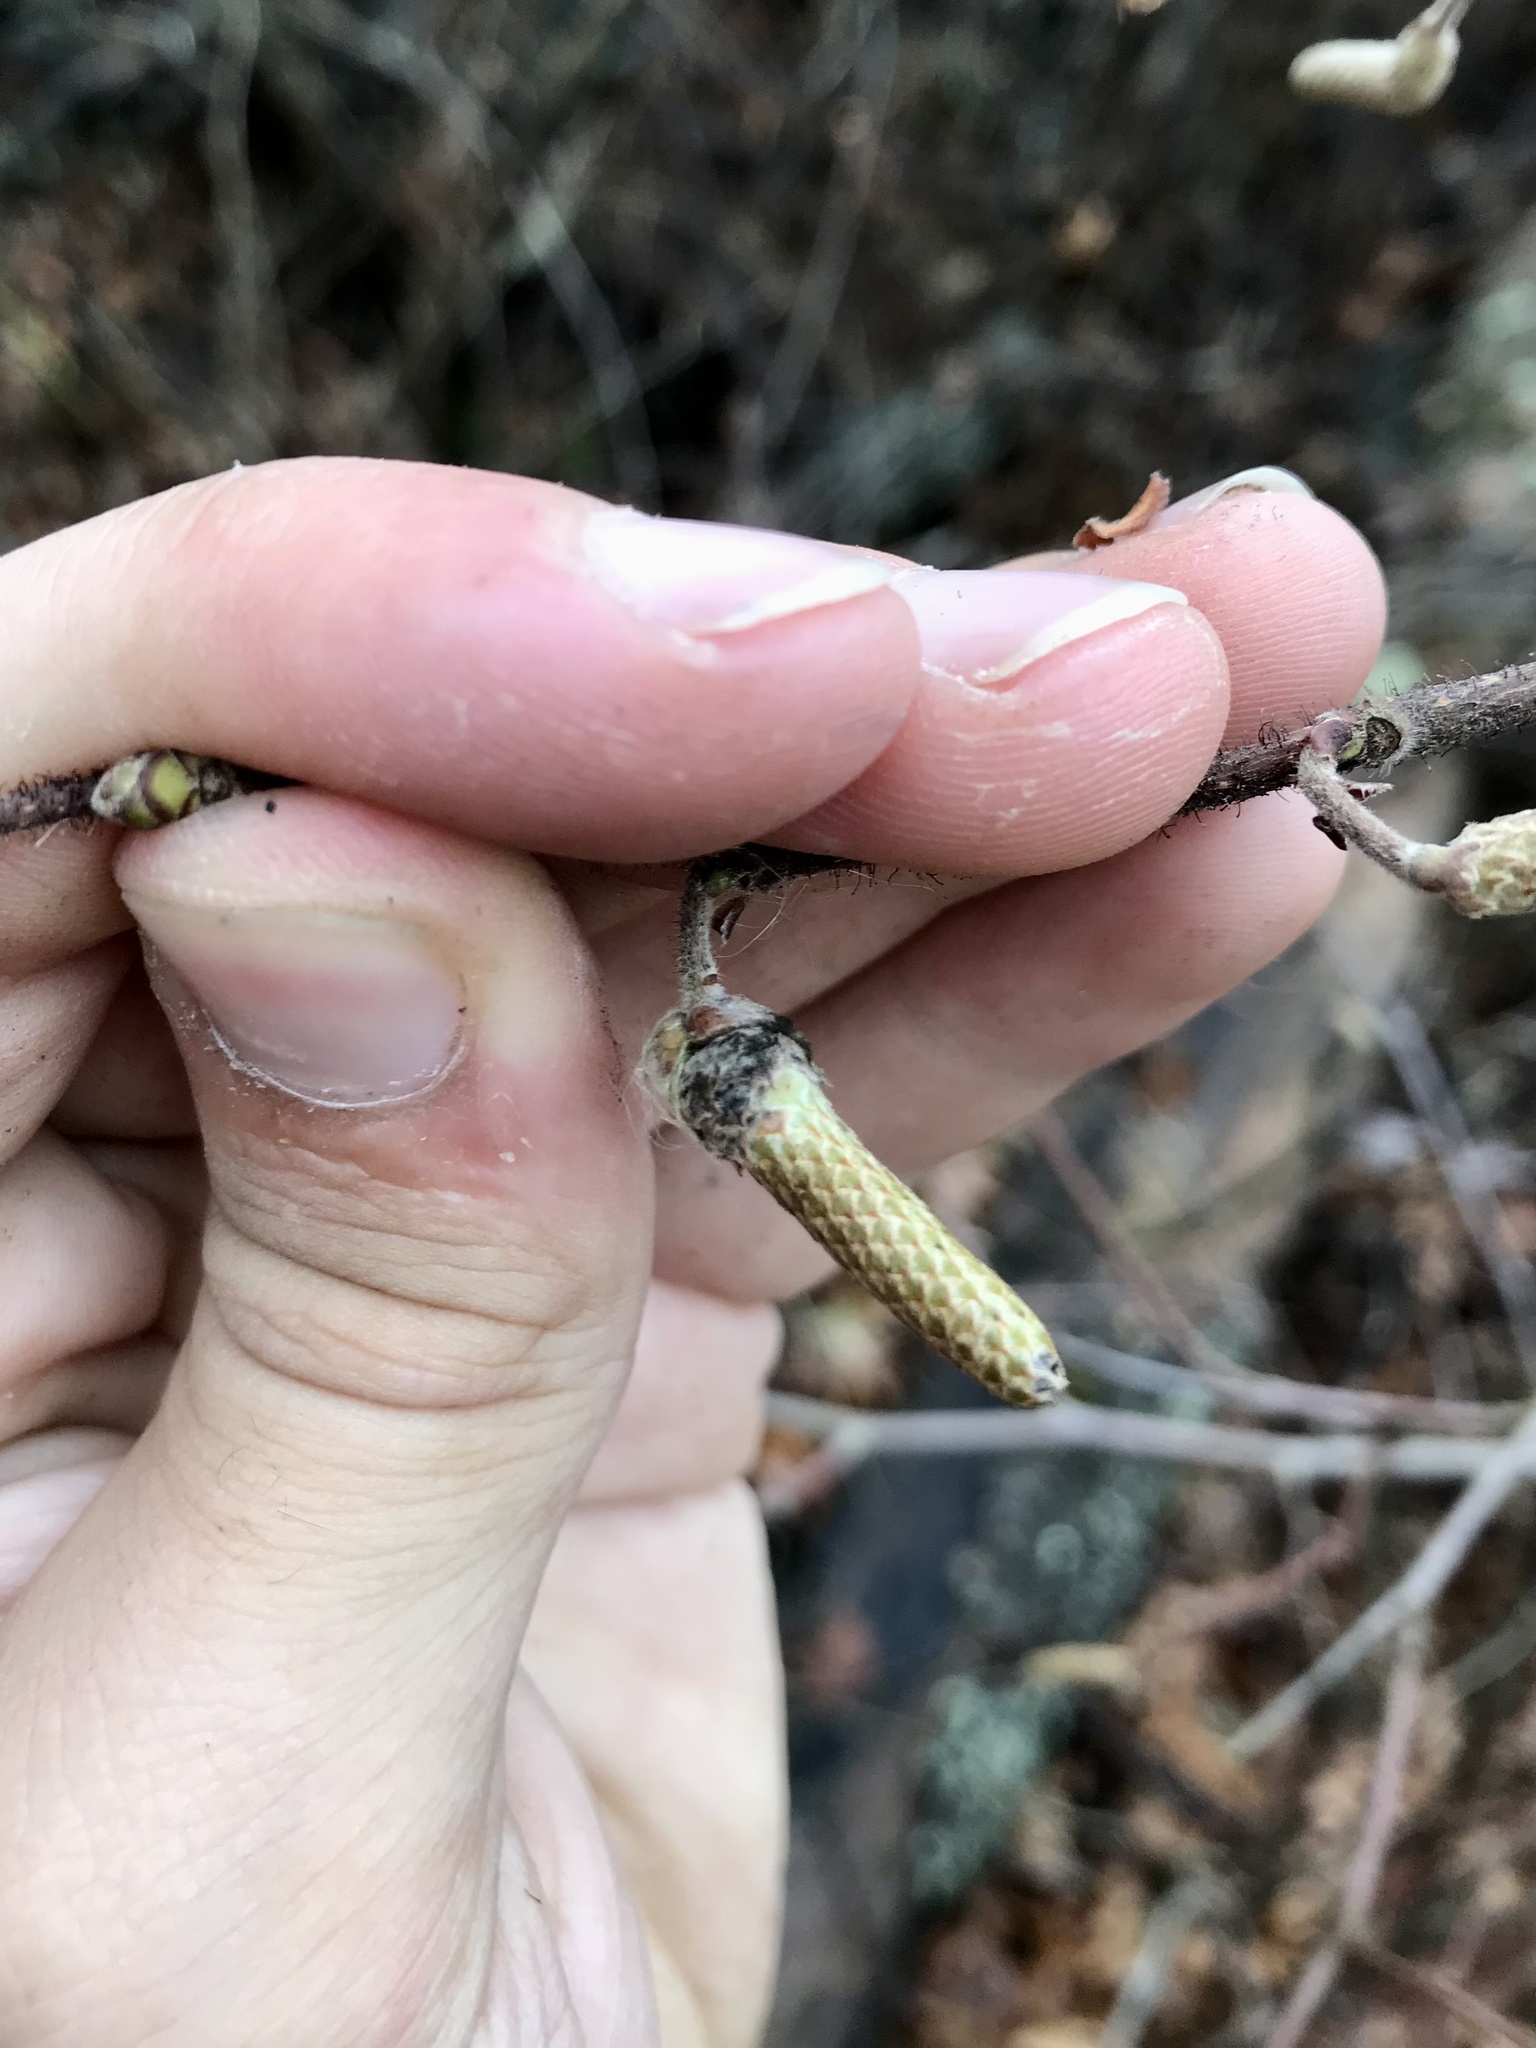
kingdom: Animalia
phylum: Arthropoda
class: Insecta
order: Diptera
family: Cecidomyiidae
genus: Contarinia
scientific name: Contarinia
